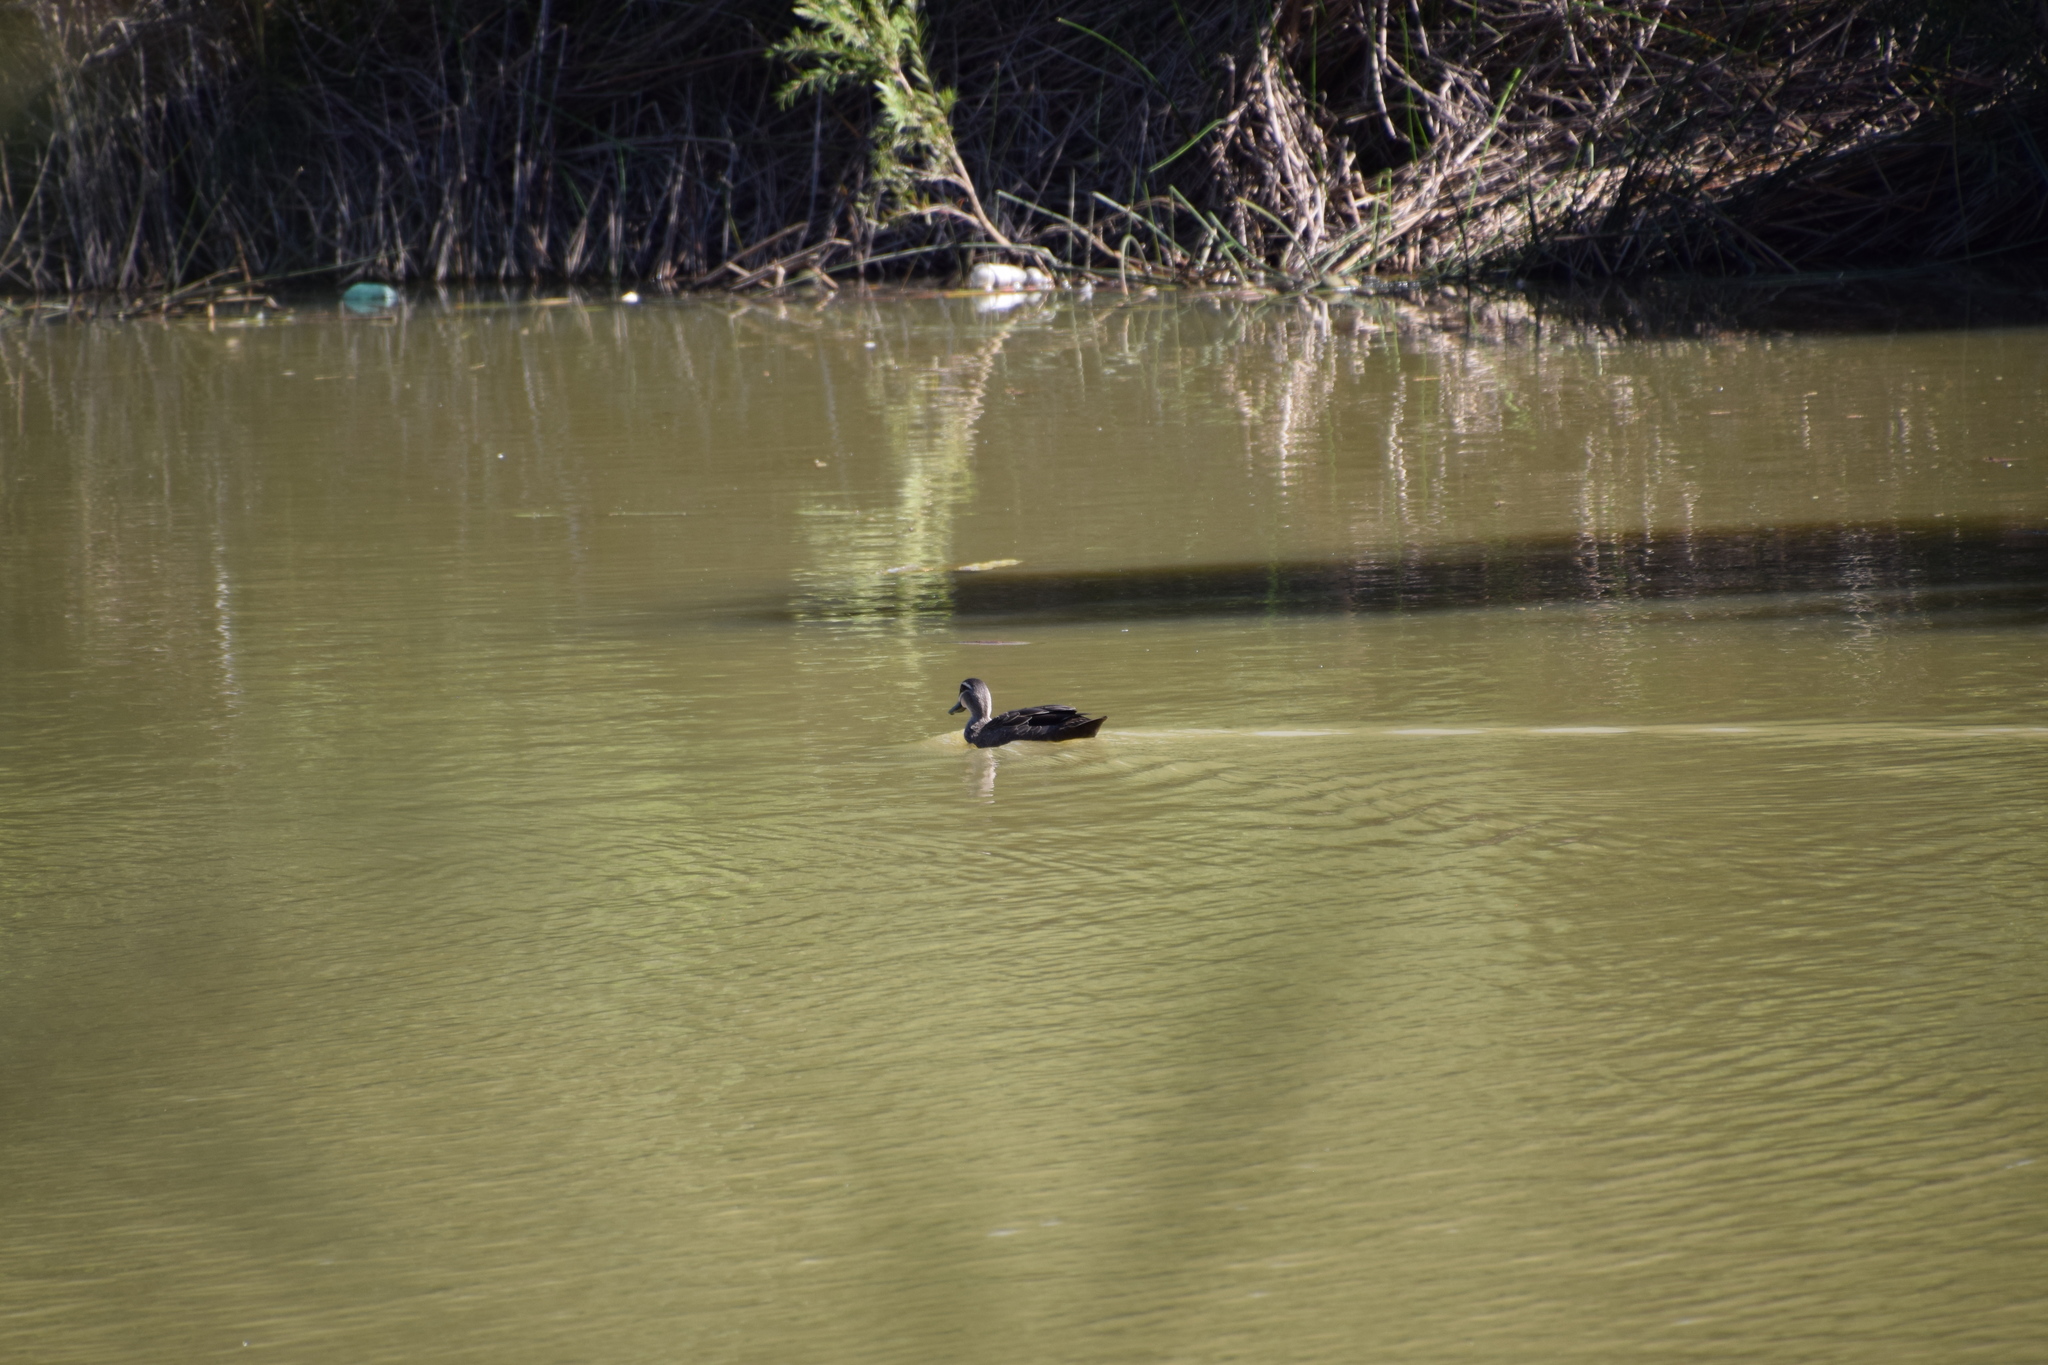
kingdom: Animalia
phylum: Chordata
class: Aves
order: Anseriformes
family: Anatidae
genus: Anas
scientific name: Anas superciliosa
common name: Pacific black duck
